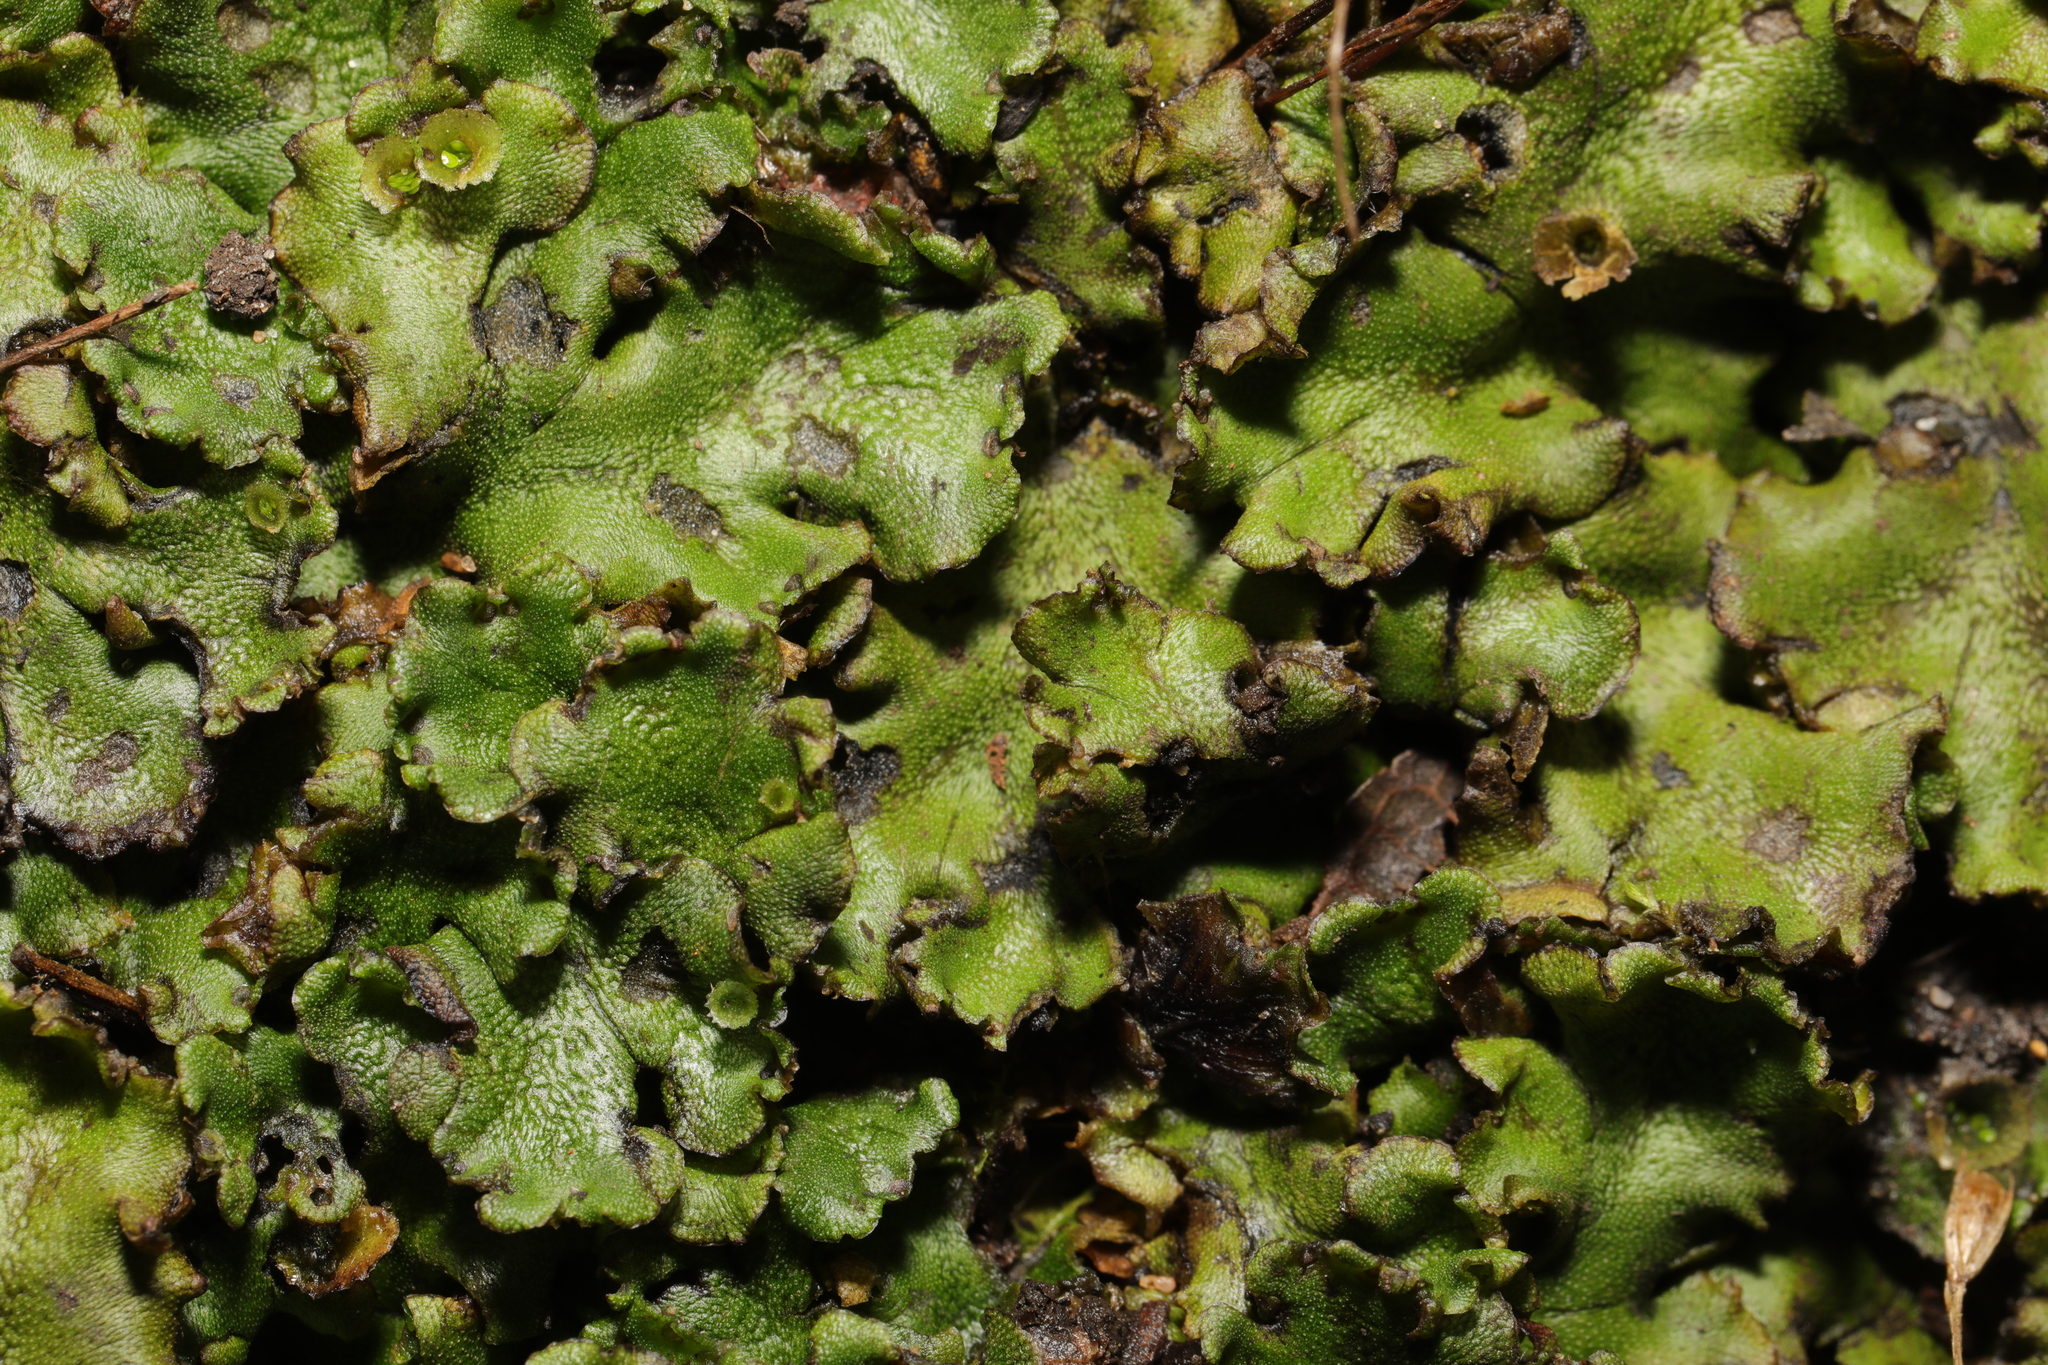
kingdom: Plantae
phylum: Marchantiophyta
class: Marchantiopsida
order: Marchantiales
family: Marchantiaceae
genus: Marchantia
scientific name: Marchantia polymorpha
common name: Common liverwort
